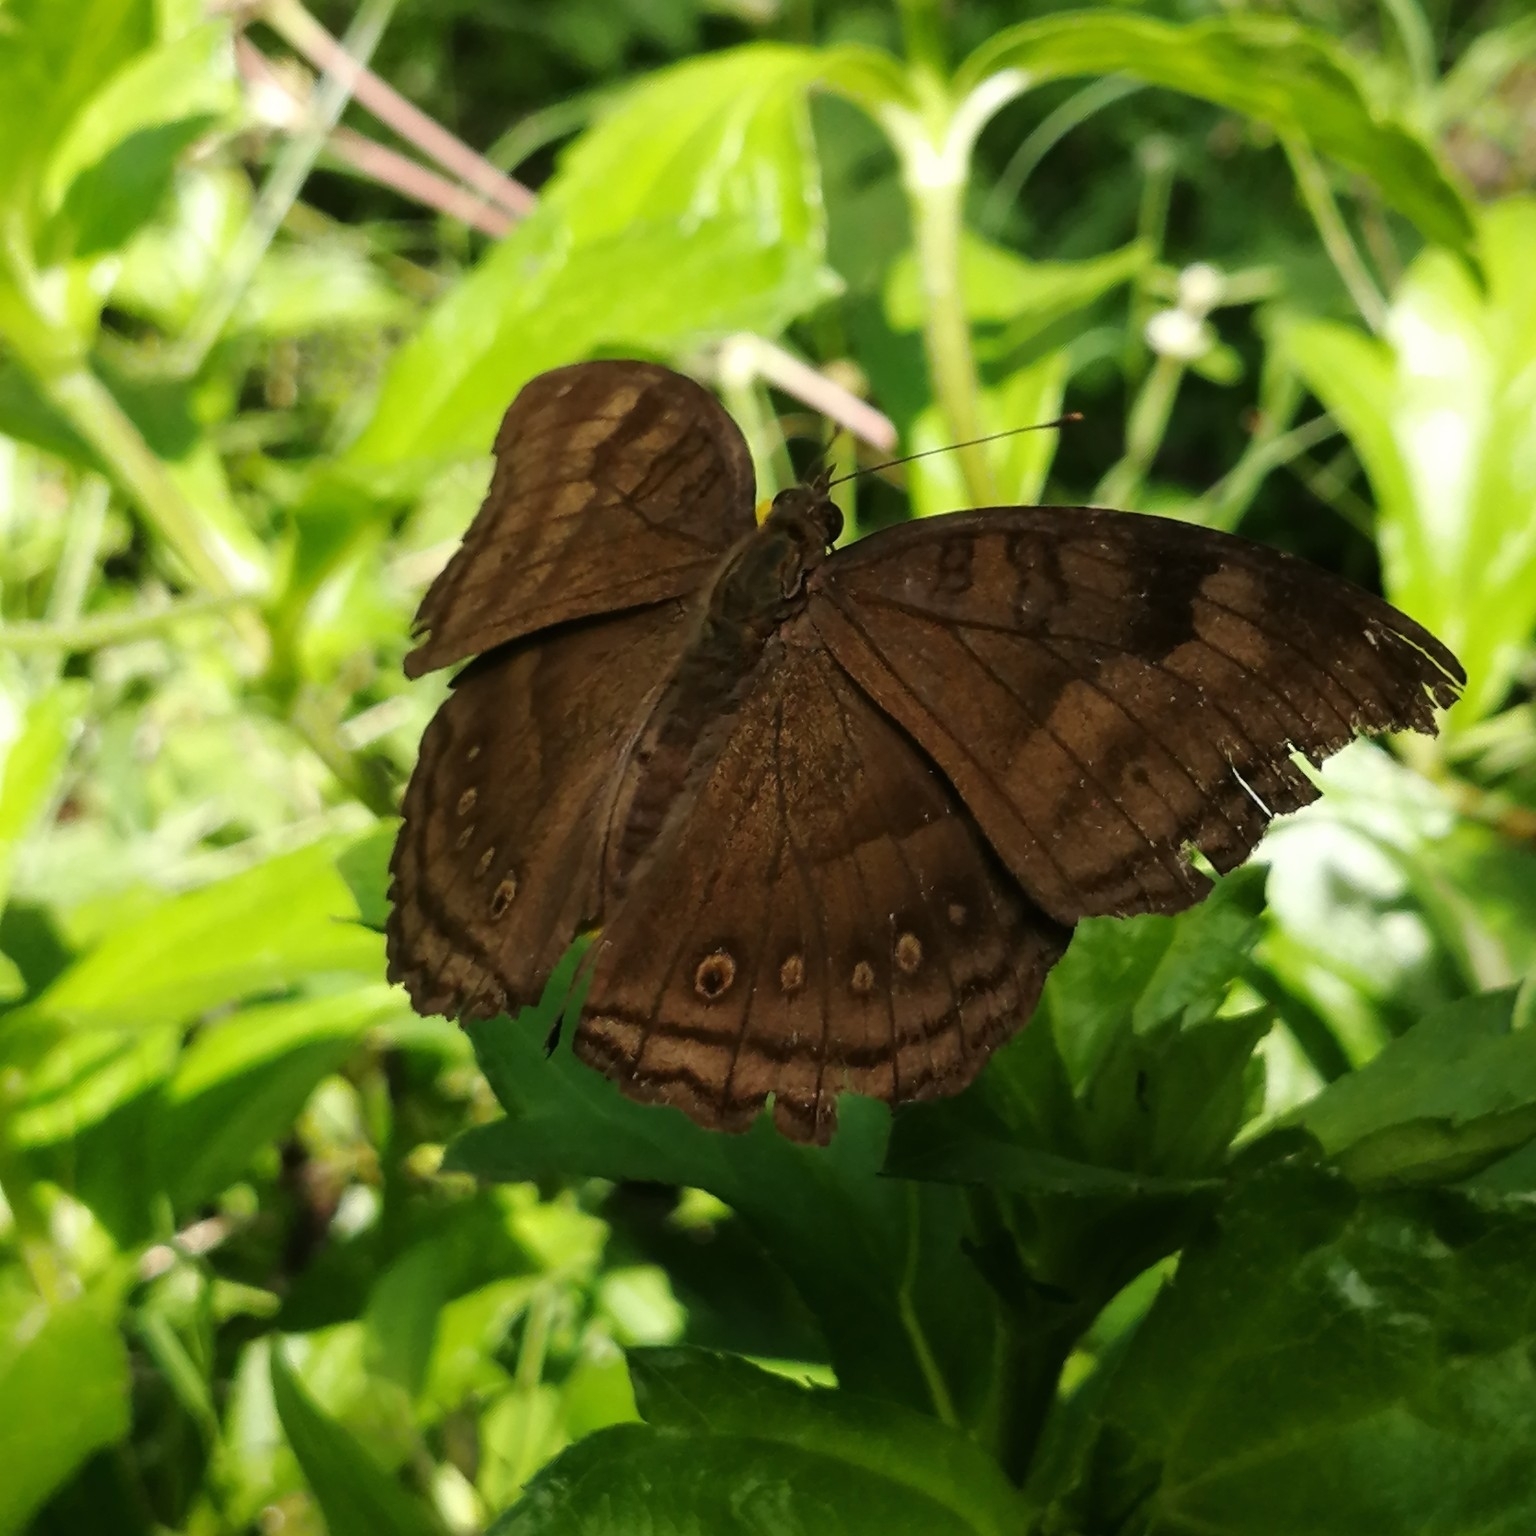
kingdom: Animalia
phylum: Arthropoda
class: Insecta
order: Lepidoptera
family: Nymphalidae
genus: Junonia
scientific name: Junonia iphita
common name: Chocolate pansy
